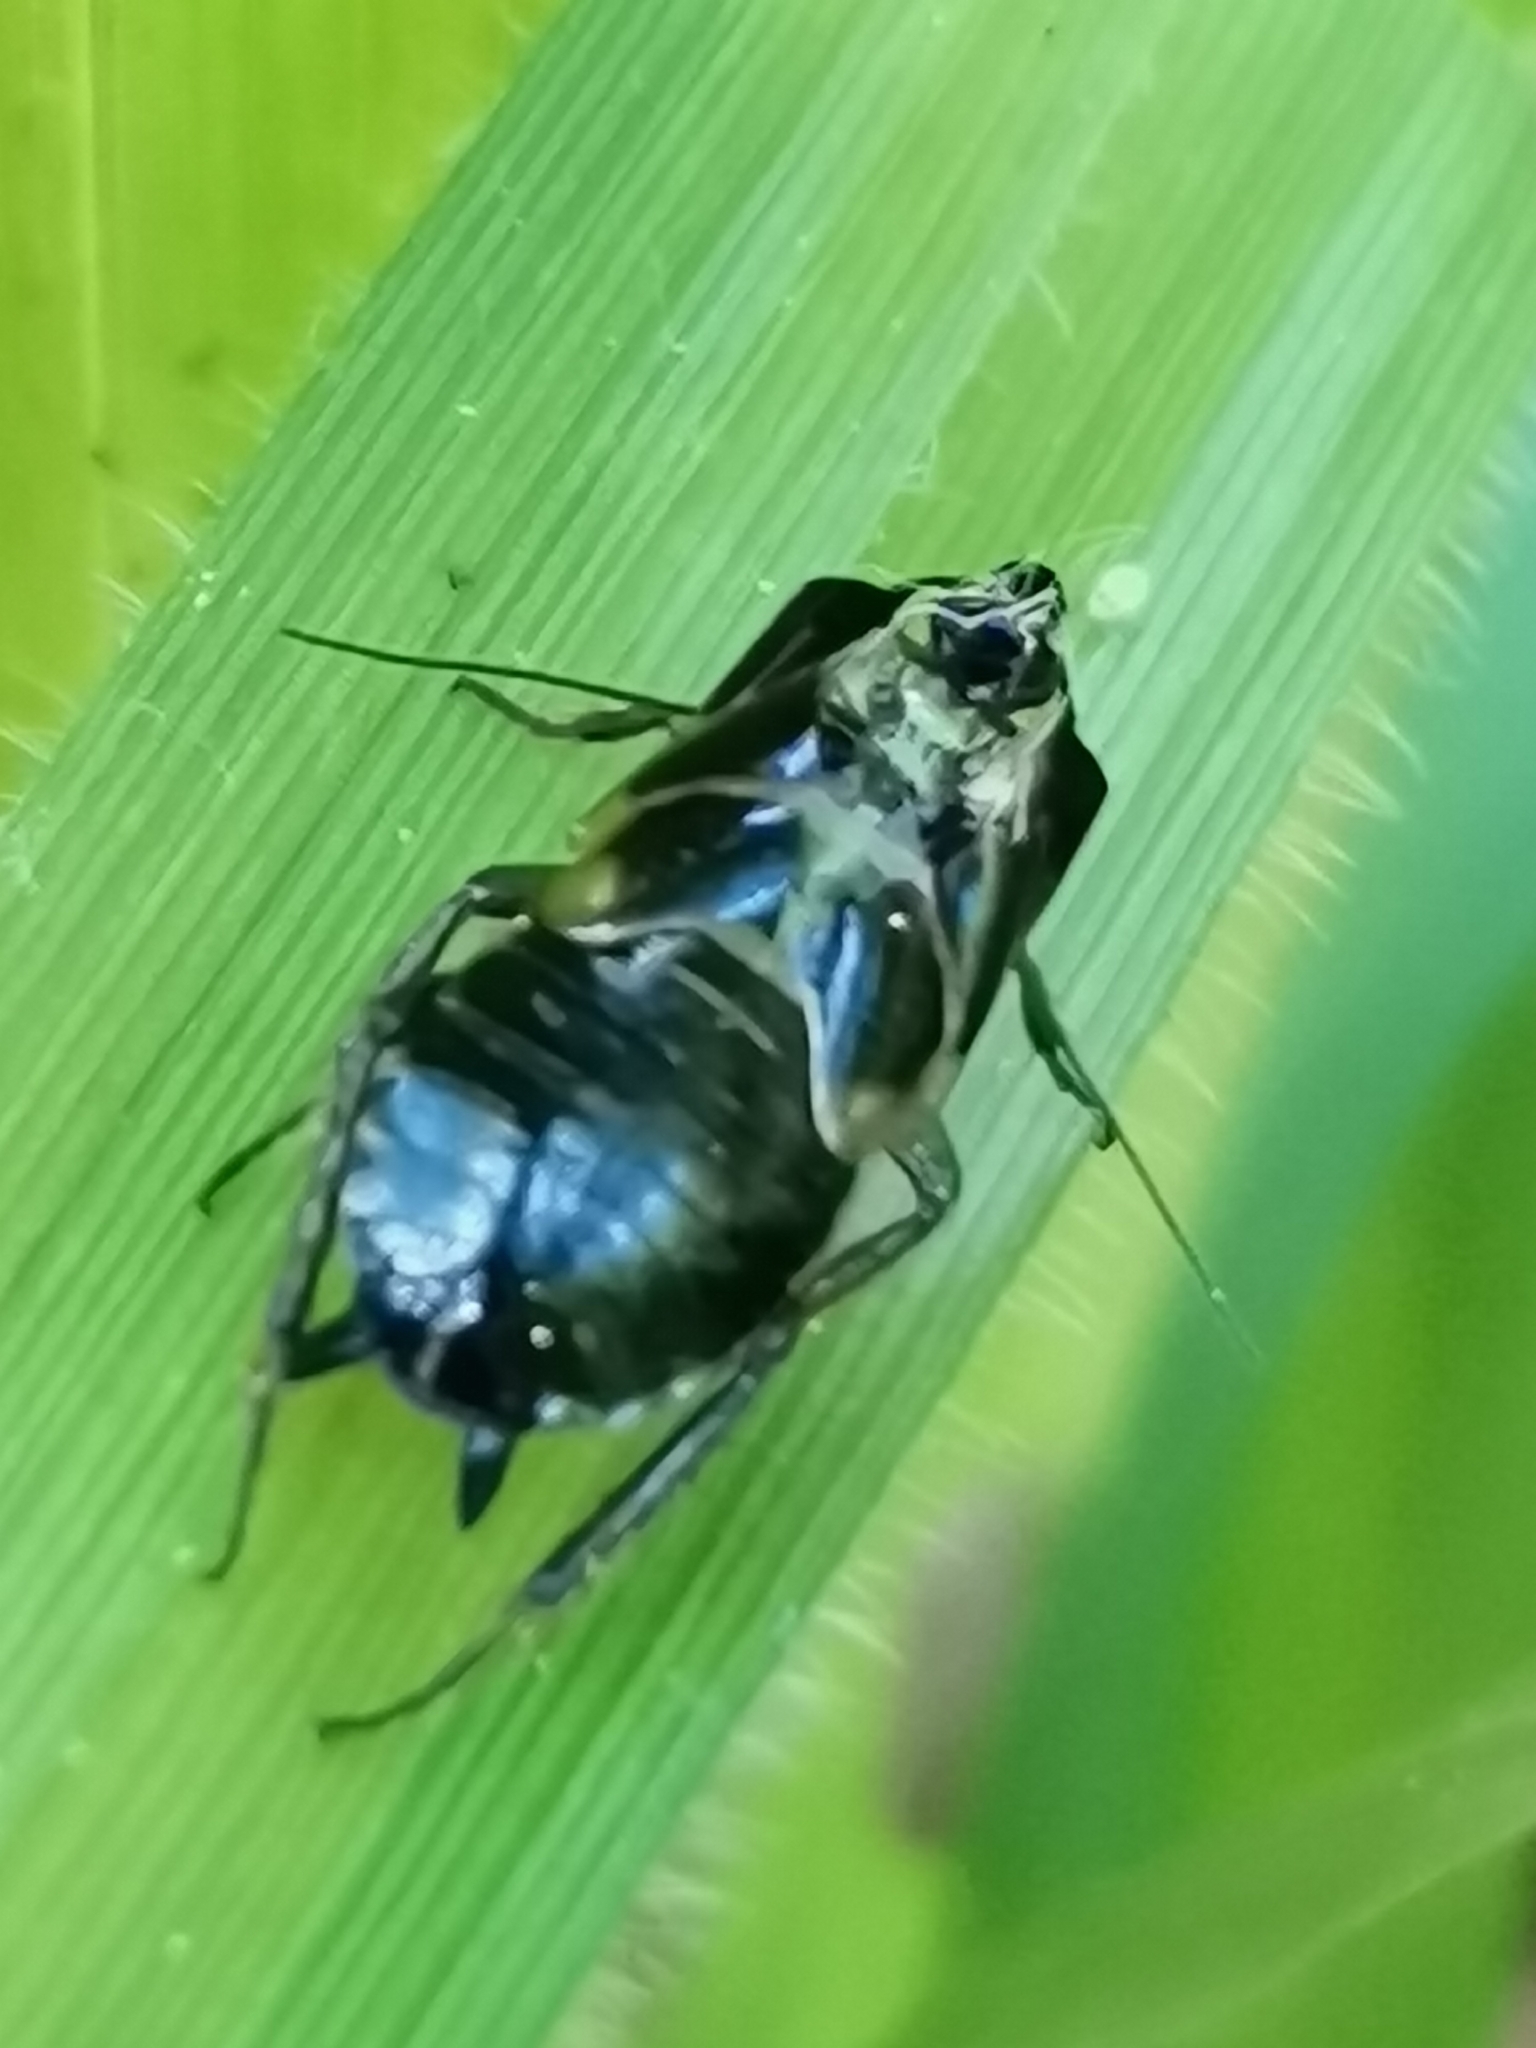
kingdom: Animalia
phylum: Arthropoda
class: Insecta
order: Blattodea
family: Ectobiidae
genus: Ectobius
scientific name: Ectobius sylvestris
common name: Forest cockroach
